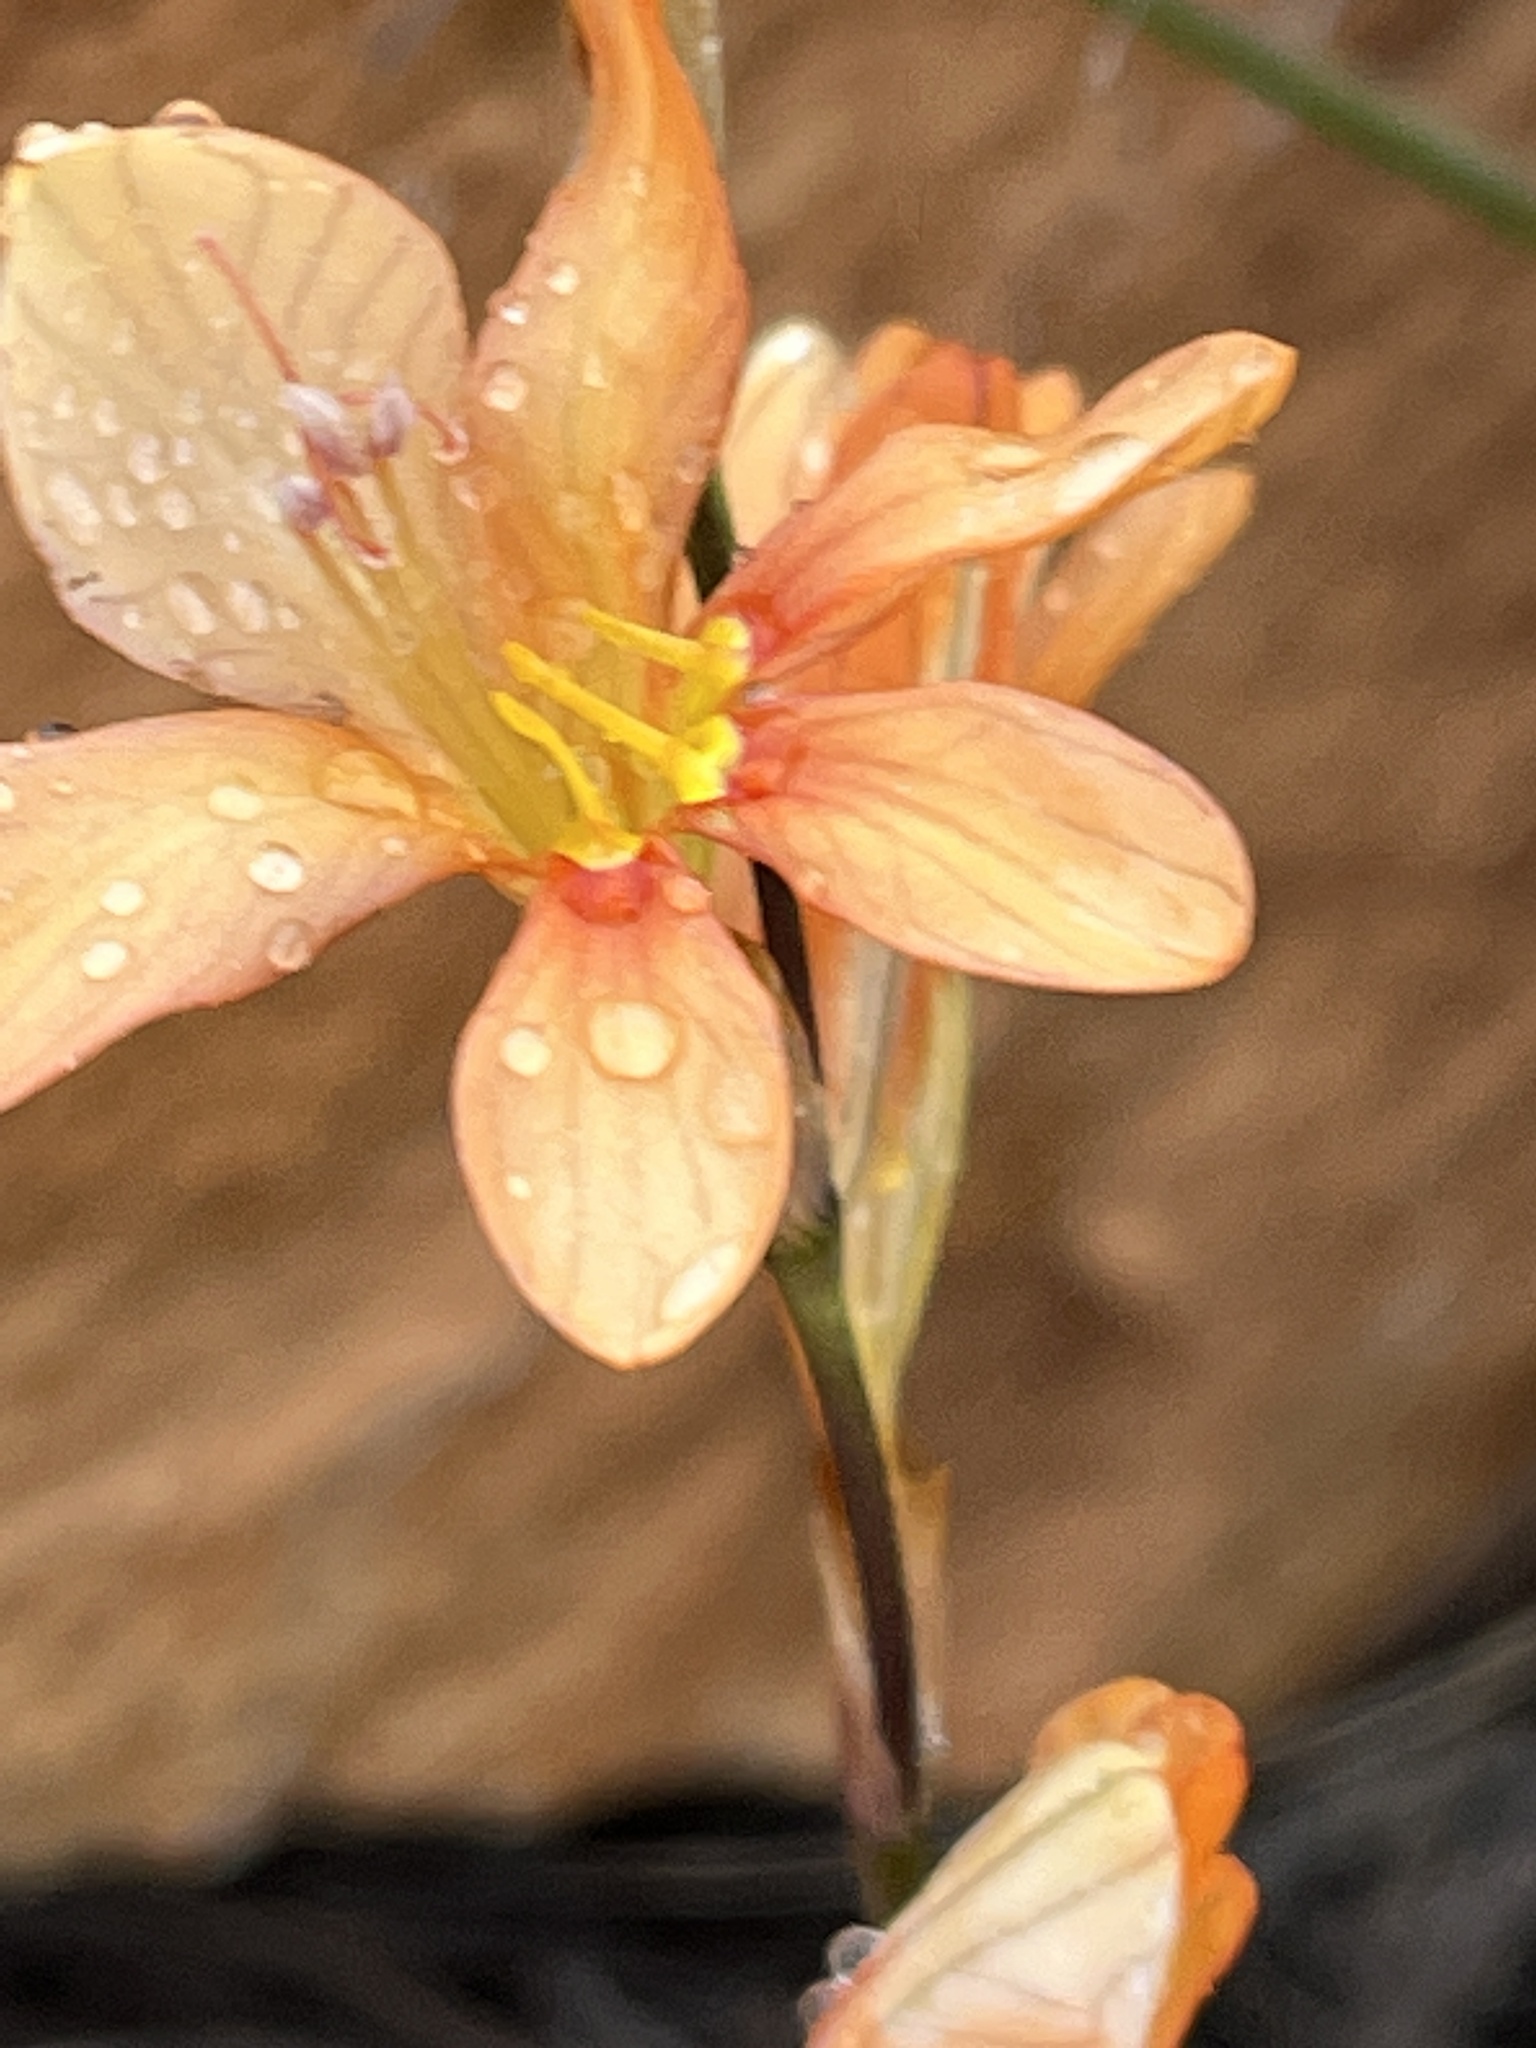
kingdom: Plantae
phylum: Tracheophyta
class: Liliopsida
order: Asparagales
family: Iridaceae
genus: Tritonia
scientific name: Tritonia parvula
